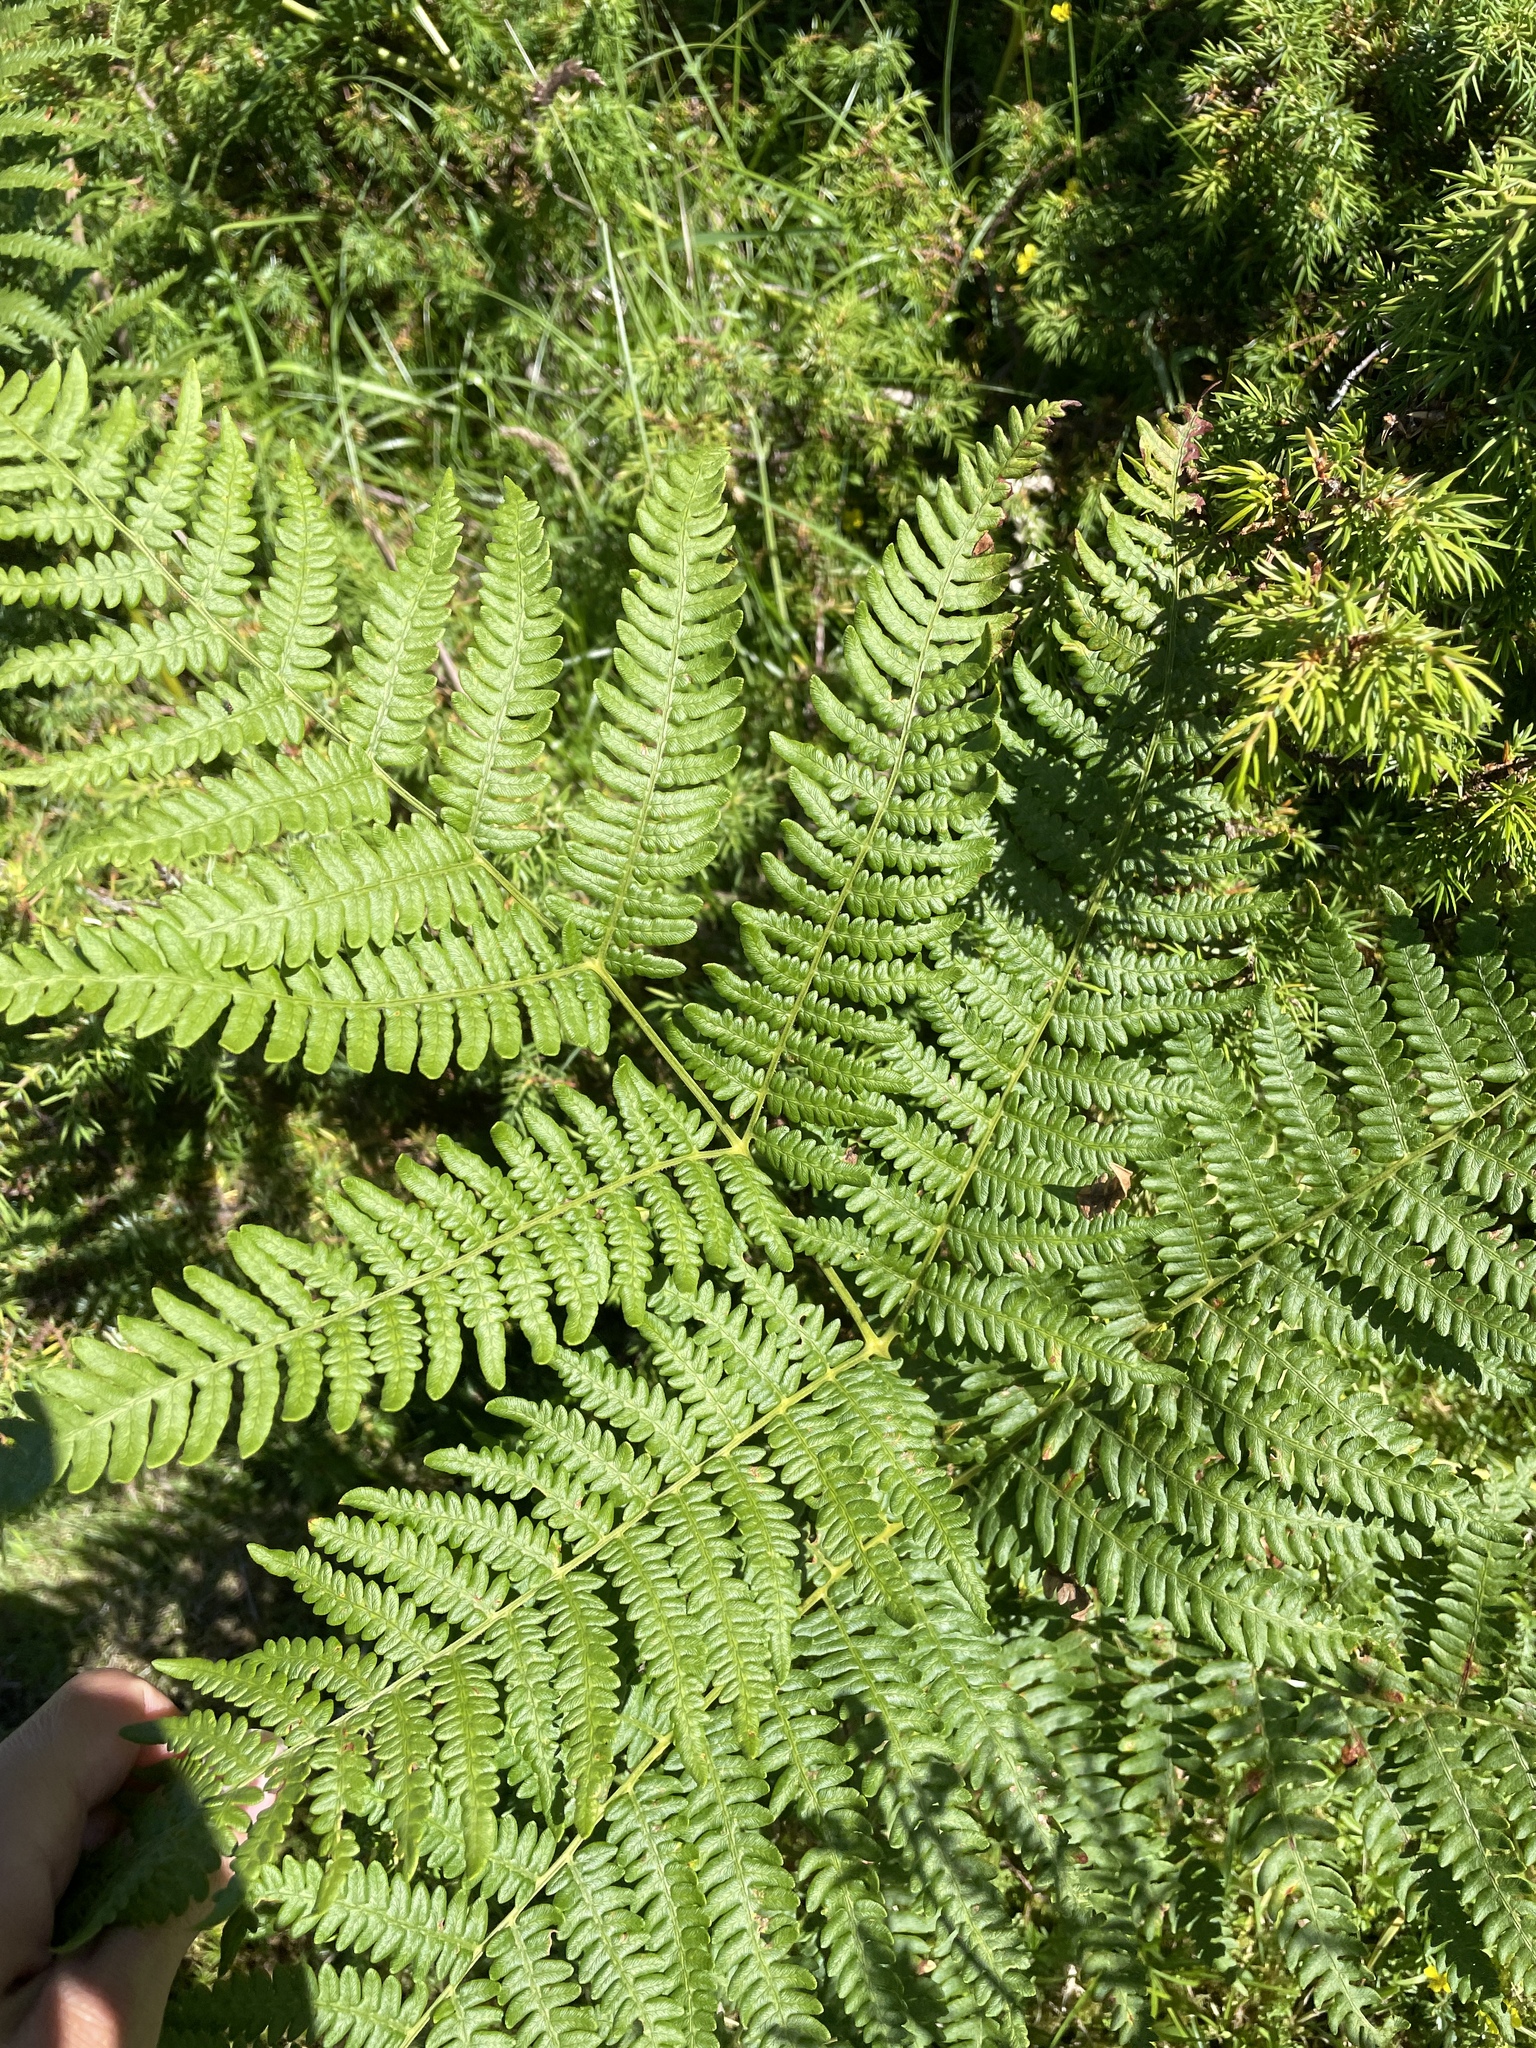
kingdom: Plantae
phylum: Tracheophyta
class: Polypodiopsida
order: Polypodiales
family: Dennstaedtiaceae
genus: Pteridium
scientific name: Pteridium aquilinum
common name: Bracken
